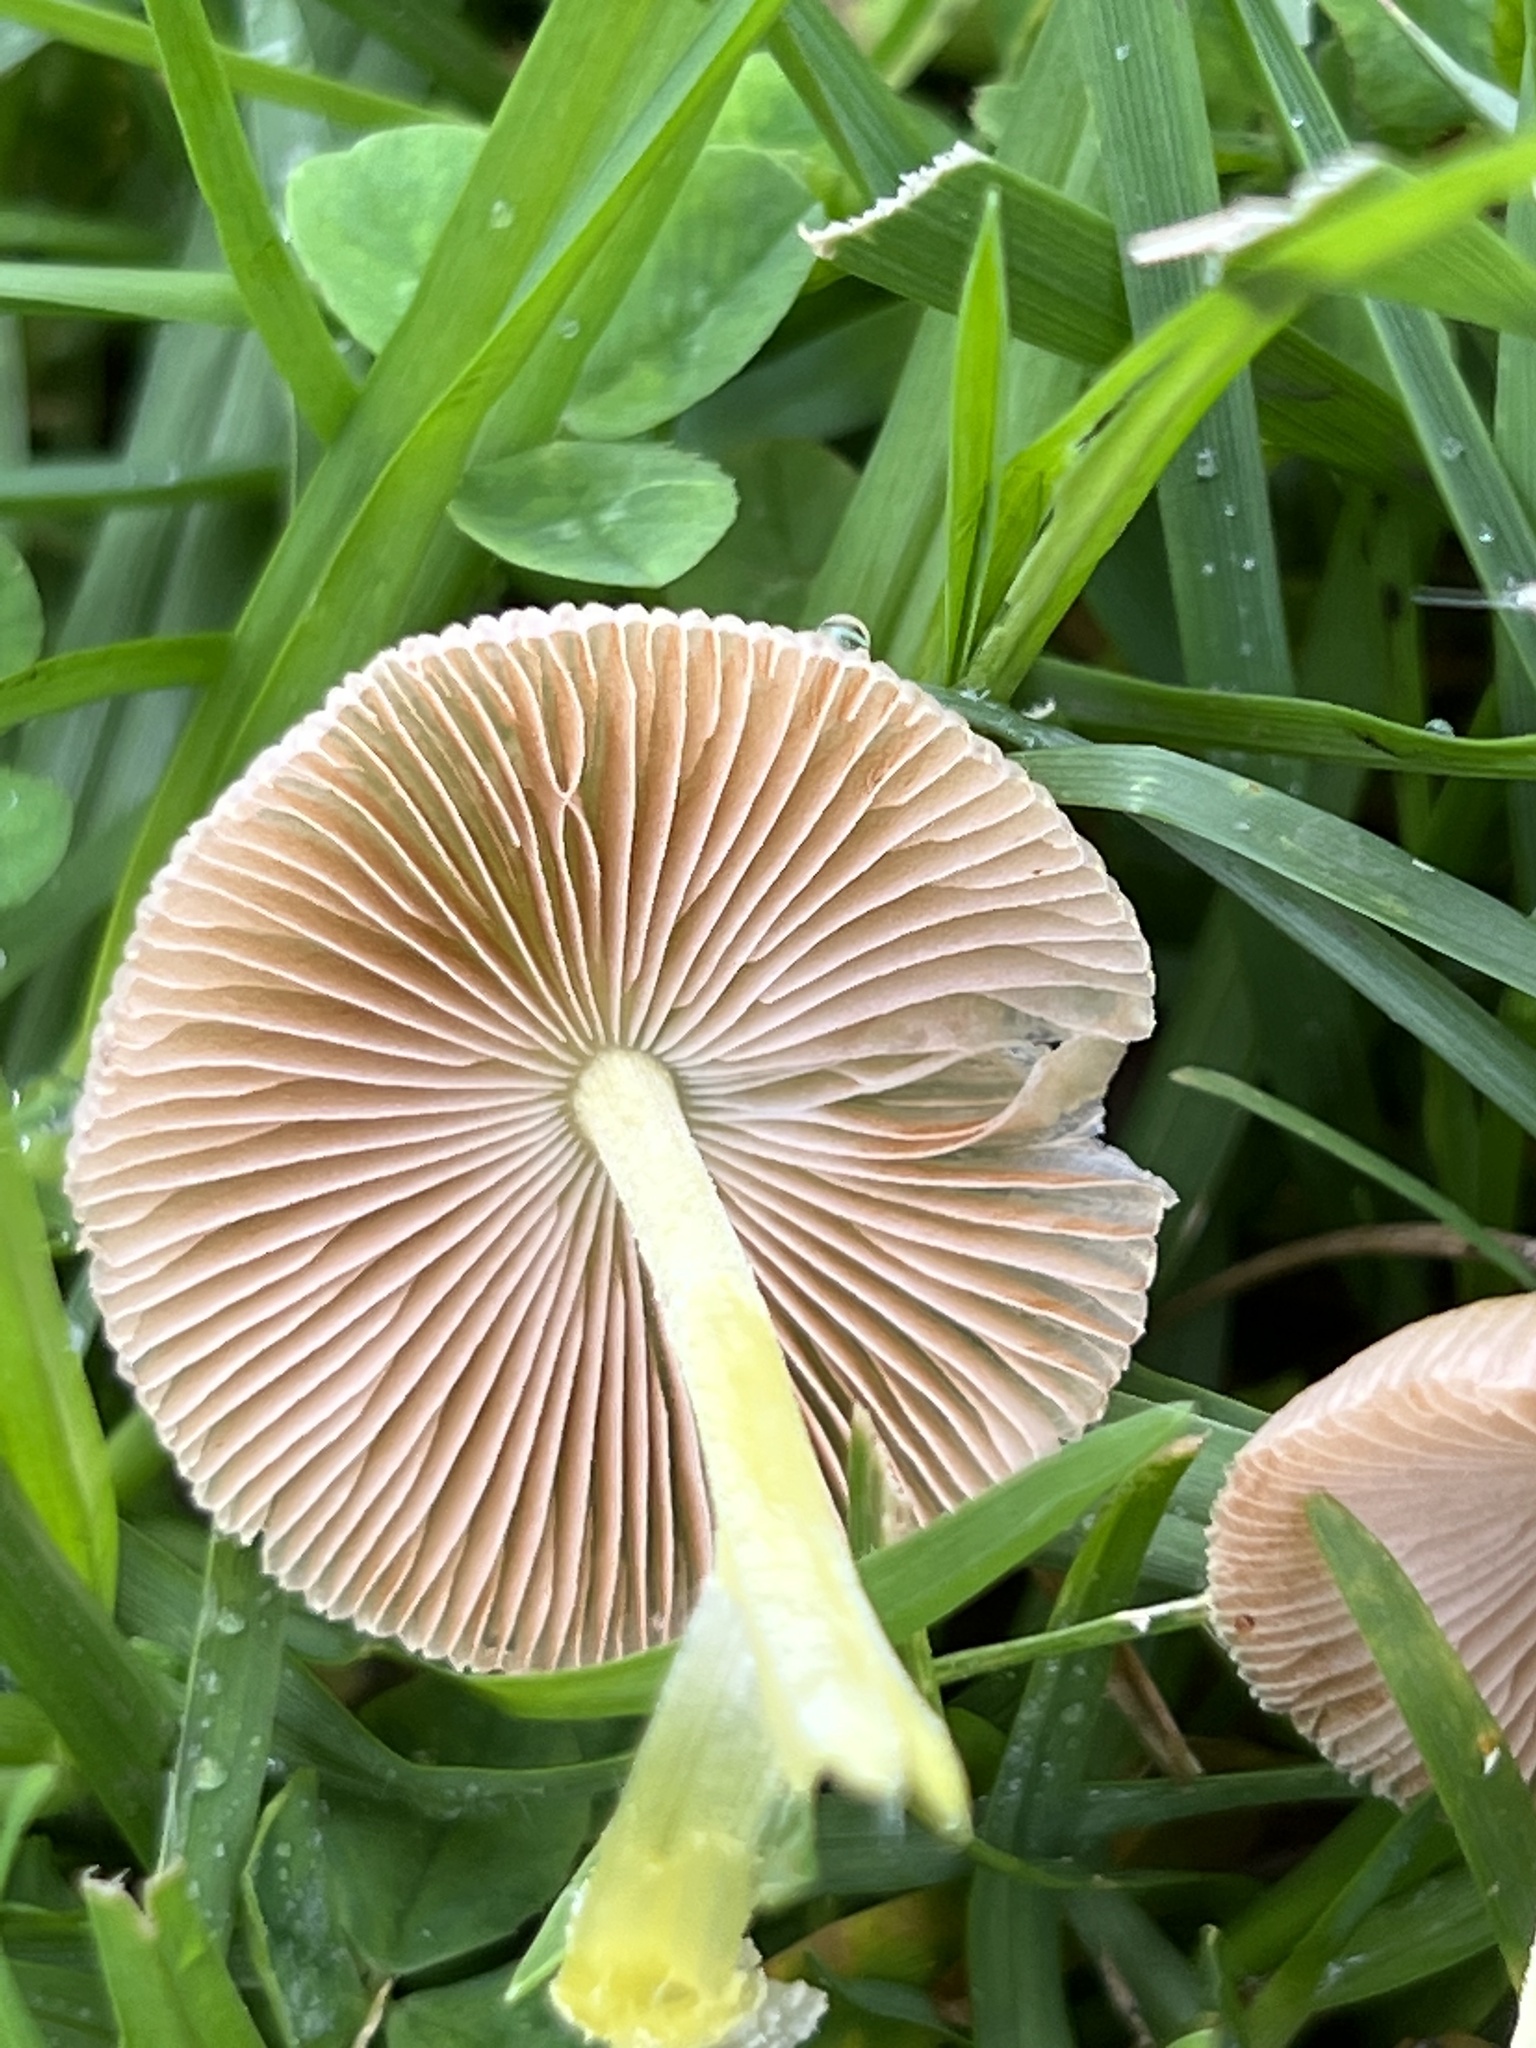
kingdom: Fungi
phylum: Basidiomycota
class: Agaricomycetes
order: Agaricales
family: Bolbitiaceae
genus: Bolbitius
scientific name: Bolbitius titubans
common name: Yellow fieldcap
